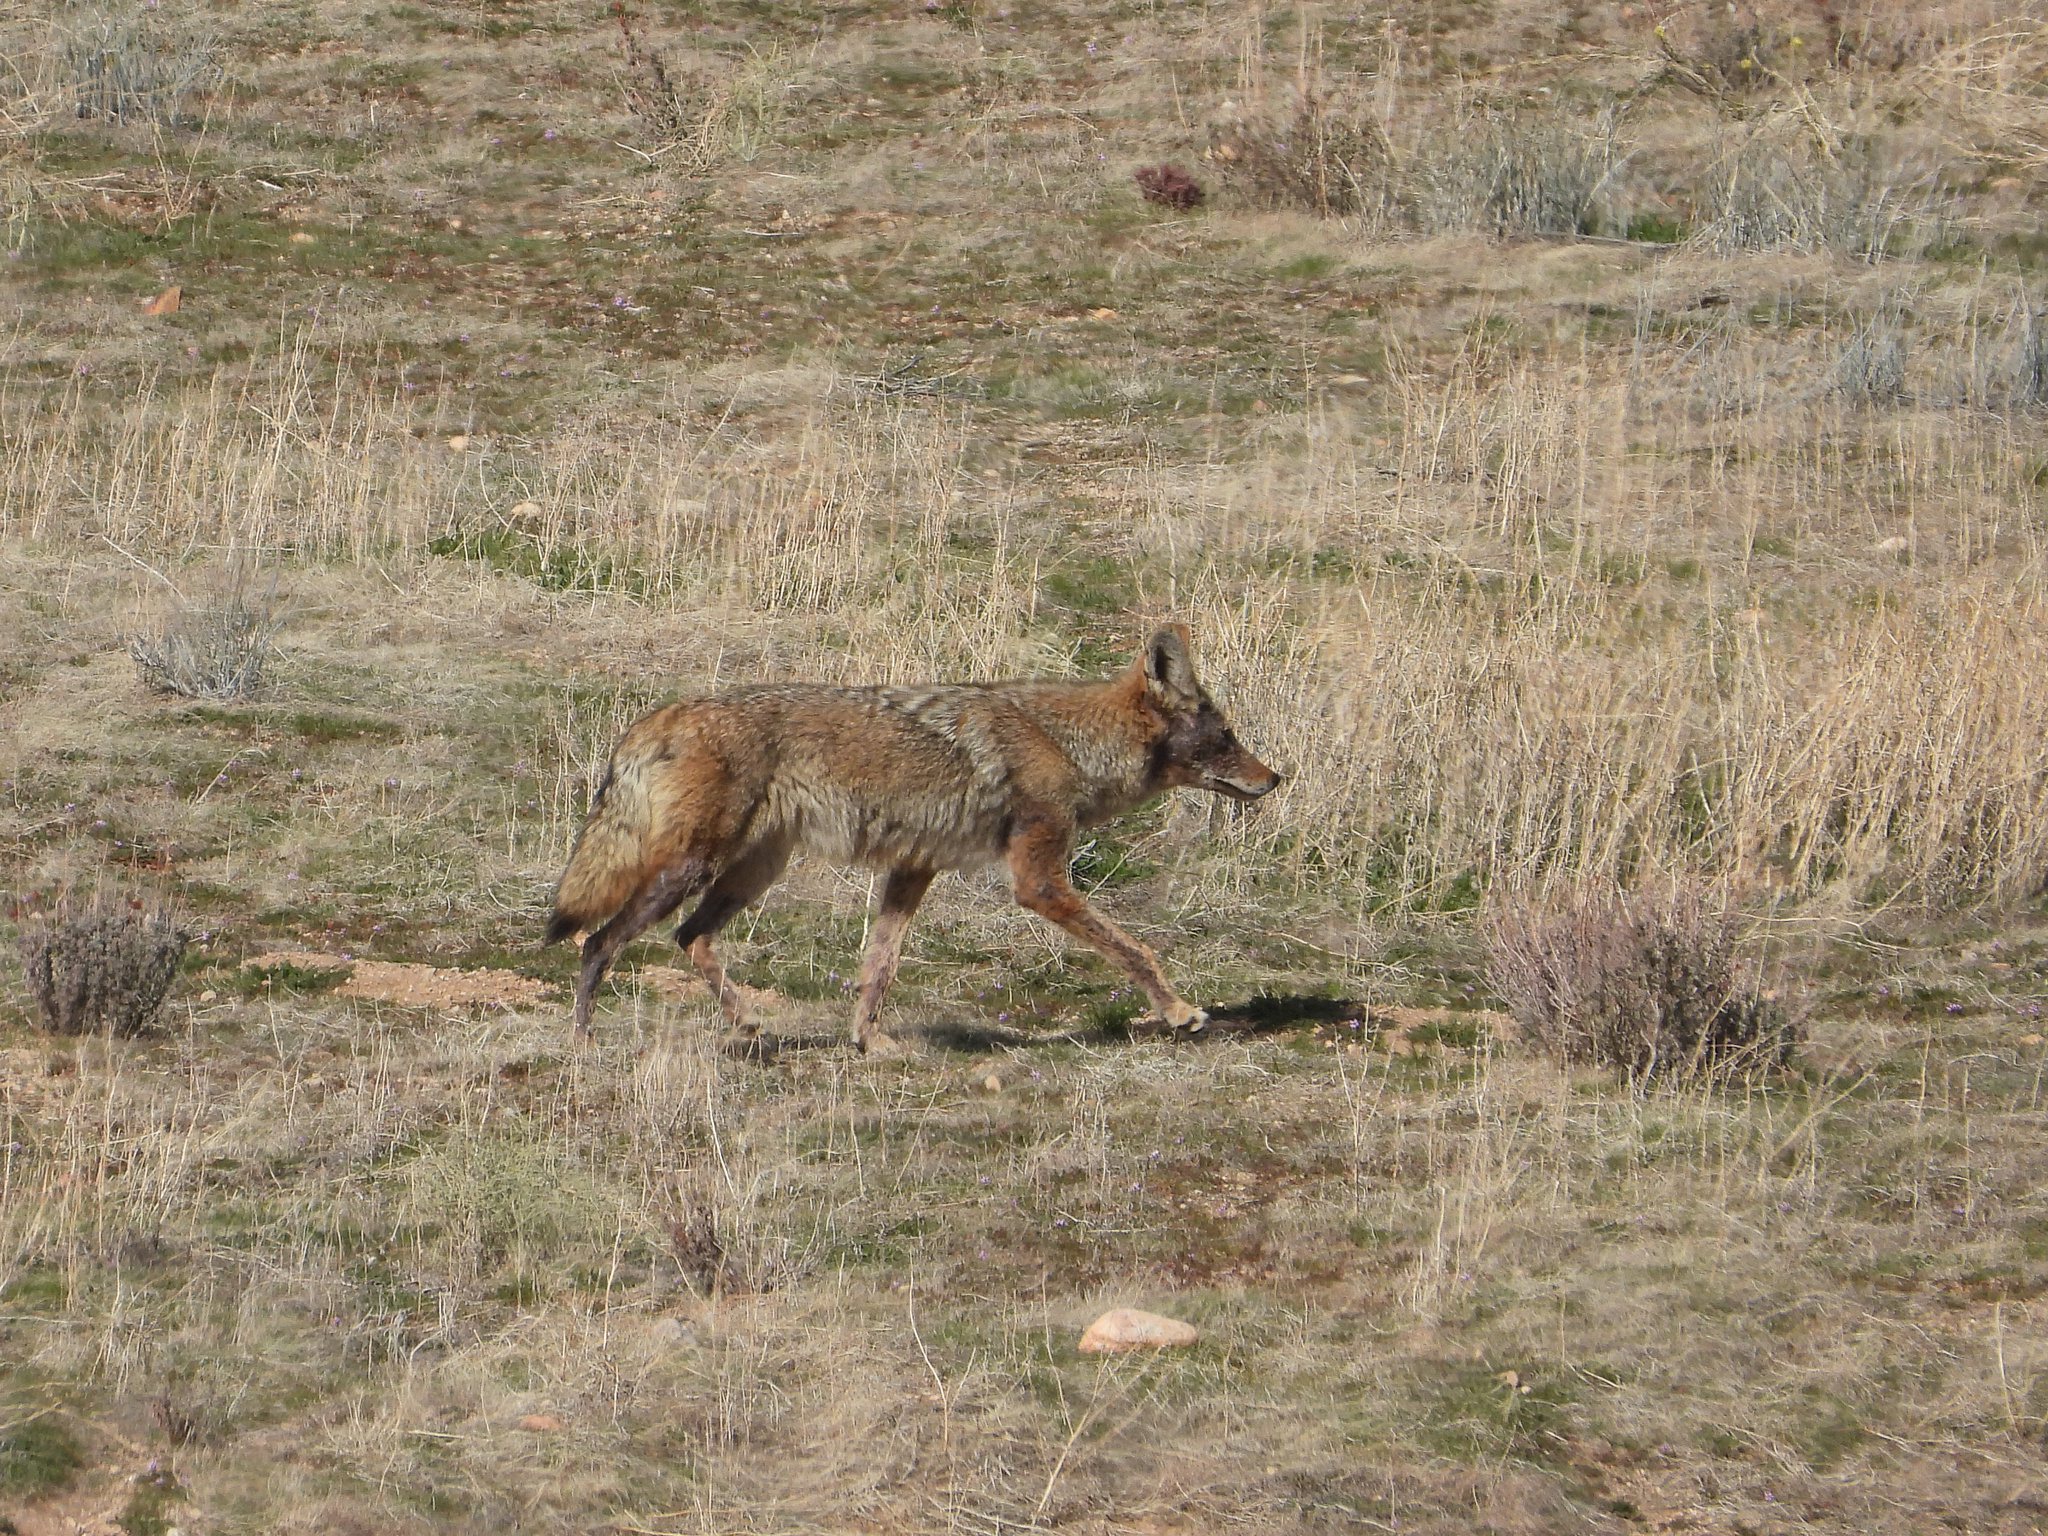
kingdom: Animalia
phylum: Chordata
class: Mammalia
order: Carnivora
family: Canidae
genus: Canis
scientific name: Canis latrans
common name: Coyote
